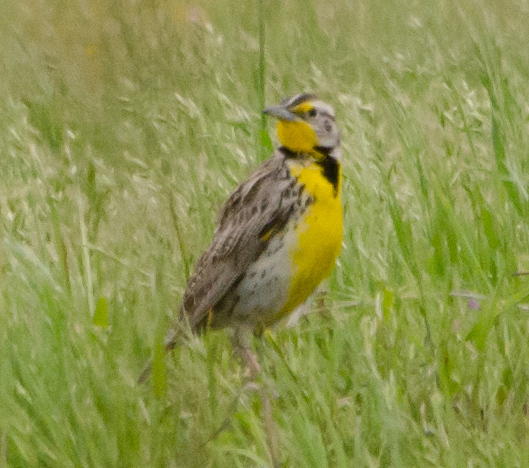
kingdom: Animalia
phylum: Chordata
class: Aves
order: Passeriformes
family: Icteridae
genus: Sturnella
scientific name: Sturnella neglecta
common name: Western meadowlark
